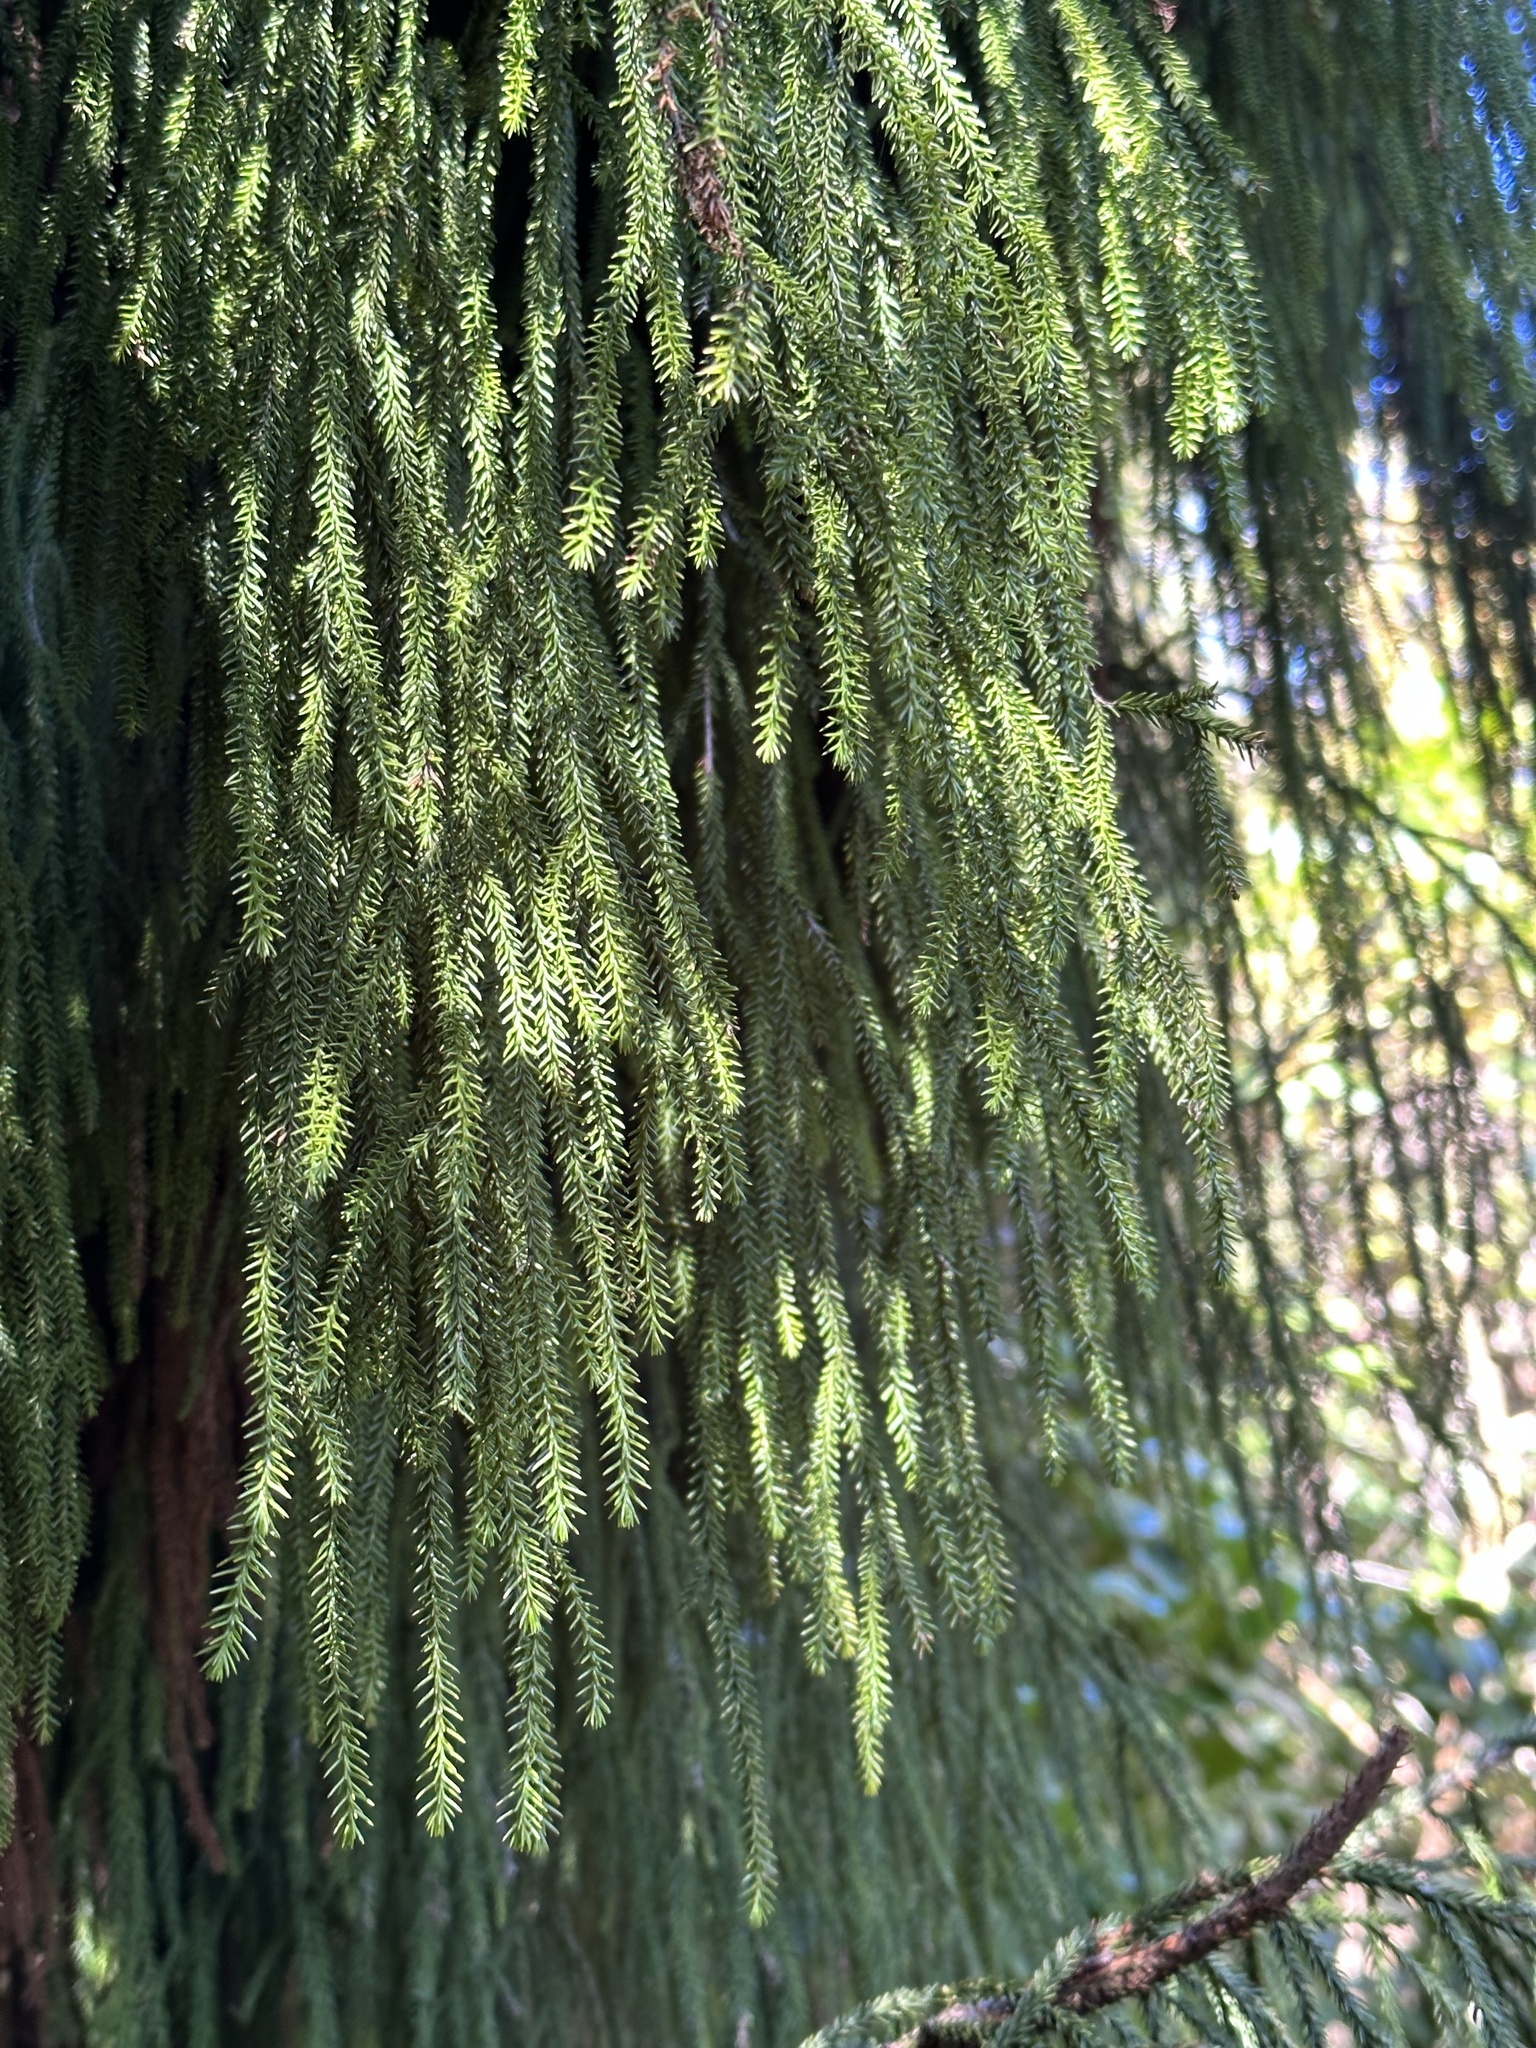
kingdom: Plantae
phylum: Tracheophyta
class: Pinopsida
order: Pinales
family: Podocarpaceae
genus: Dacrydium
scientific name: Dacrydium cupressinum
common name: Red pine
